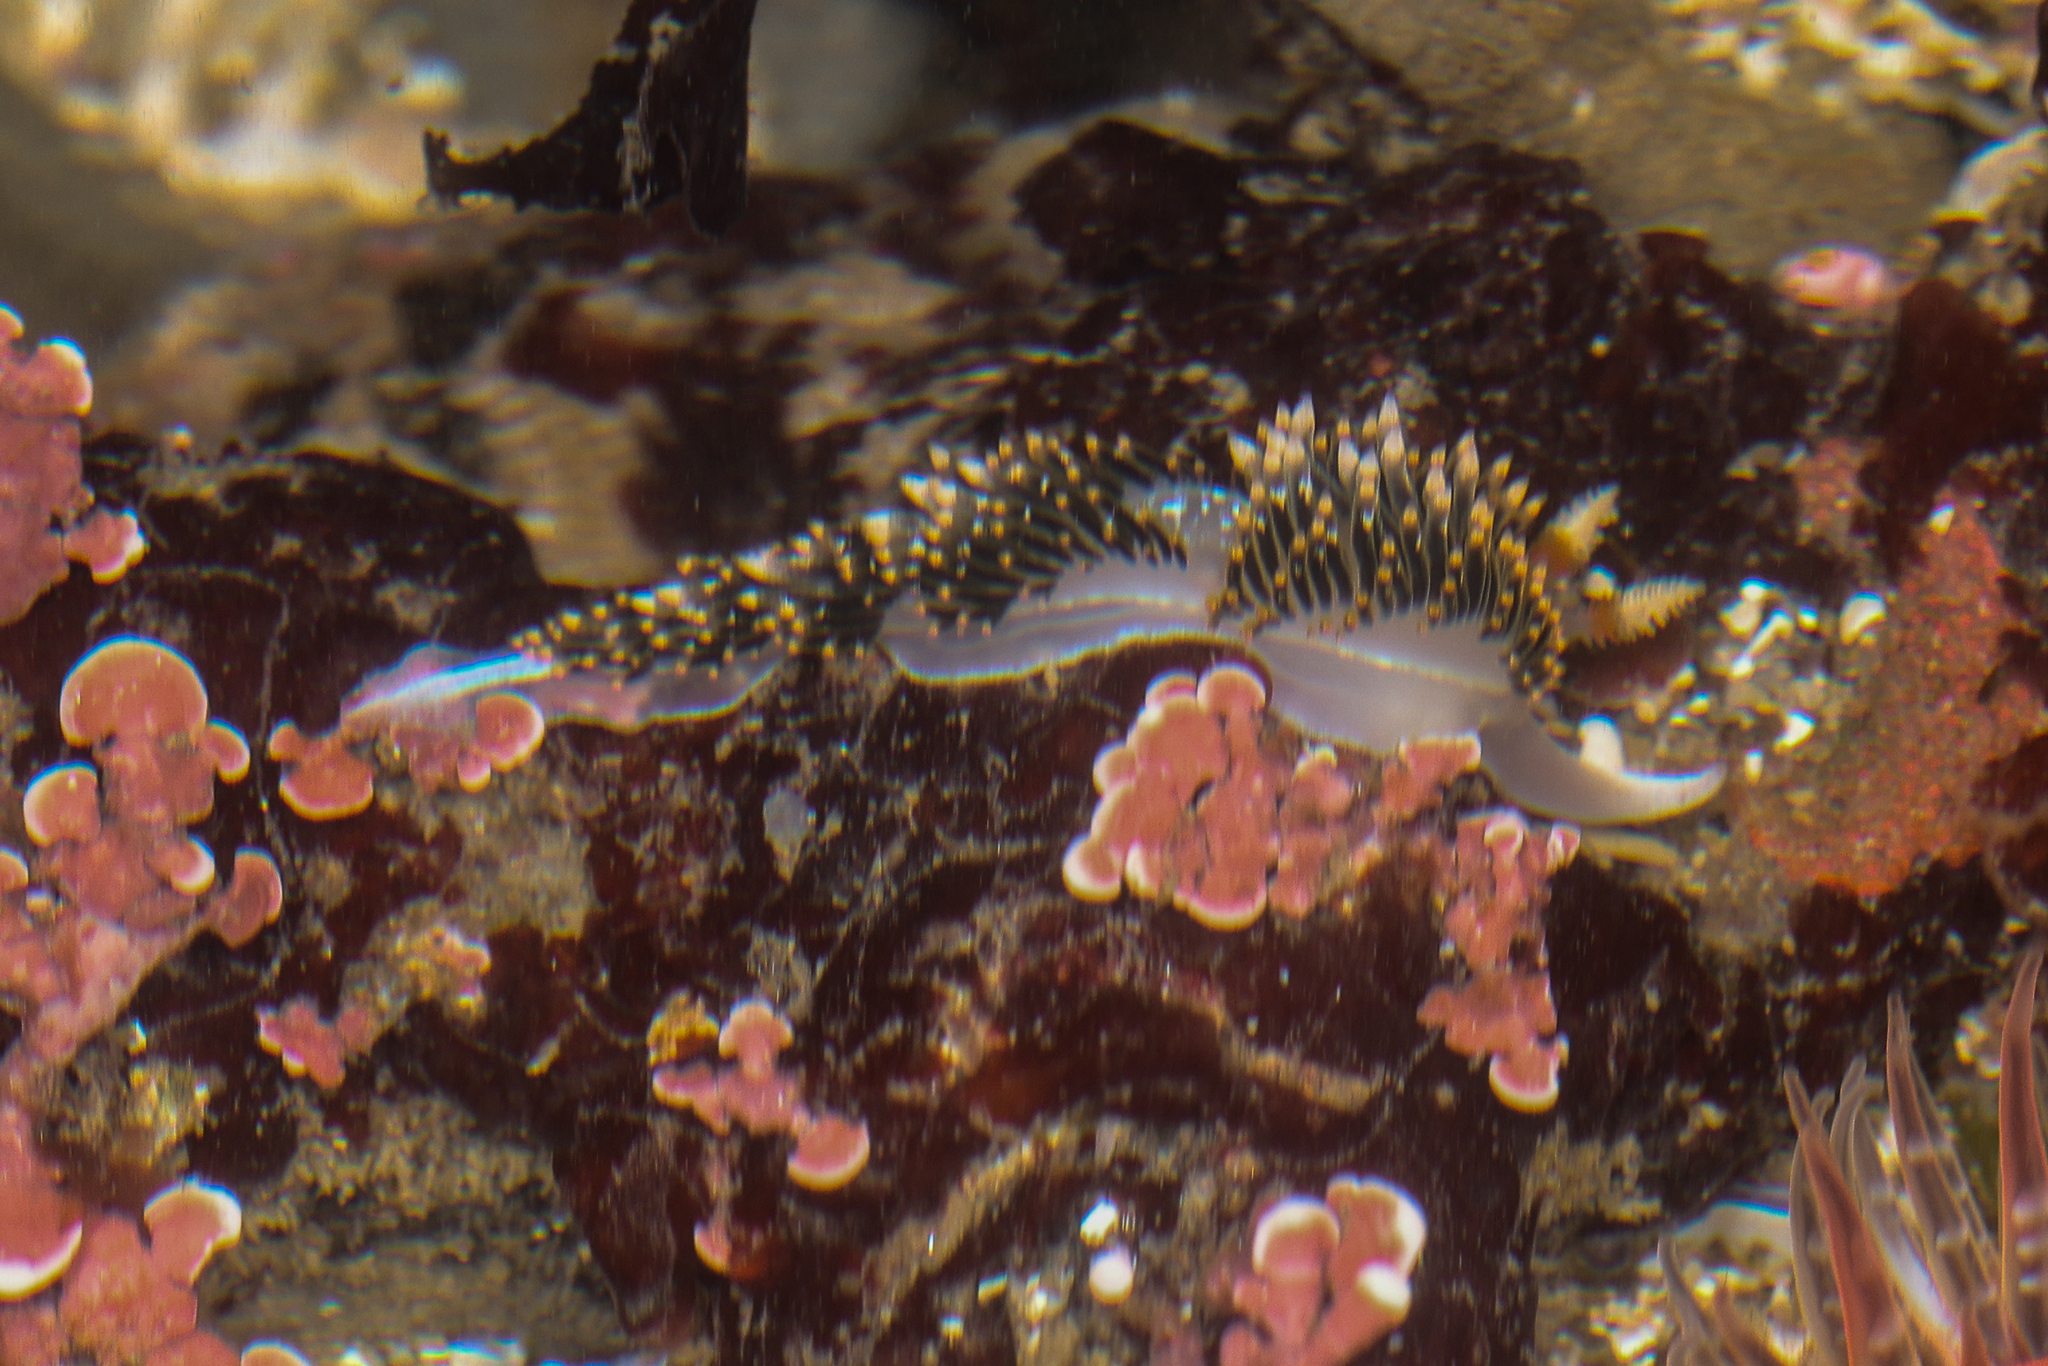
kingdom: Animalia
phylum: Mollusca
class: Gastropoda
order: Nudibranchia
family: Facelinidae
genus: Phidiana
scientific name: Phidiana hiltoni
